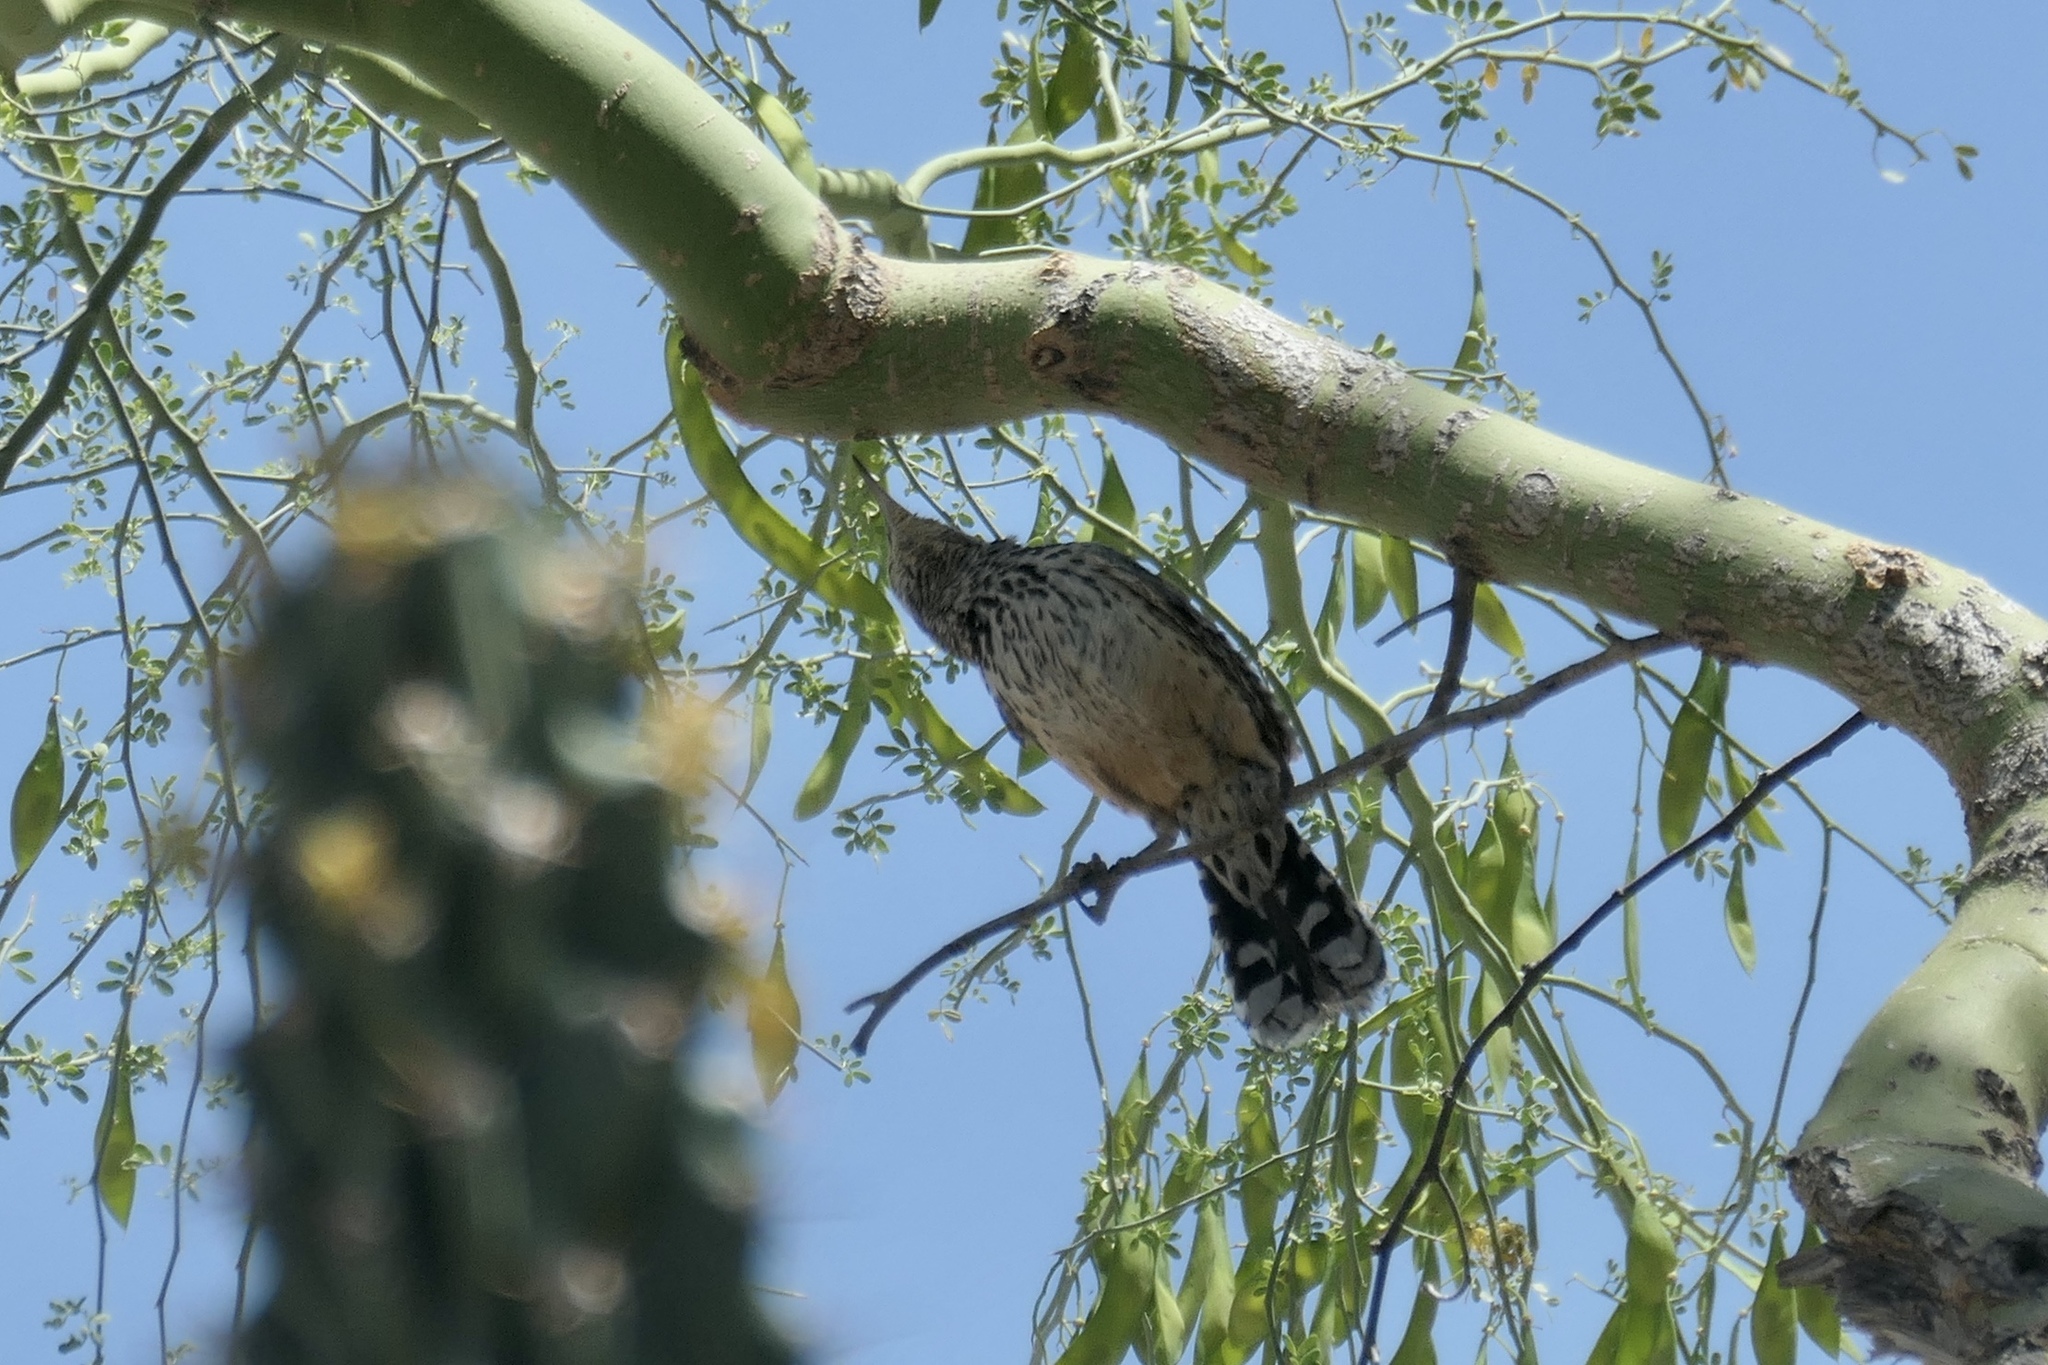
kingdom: Animalia
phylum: Chordata
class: Aves
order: Passeriformes
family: Troglodytidae
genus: Campylorhynchus
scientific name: Campylorhynchus brunneicapillus
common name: Cactus wren
